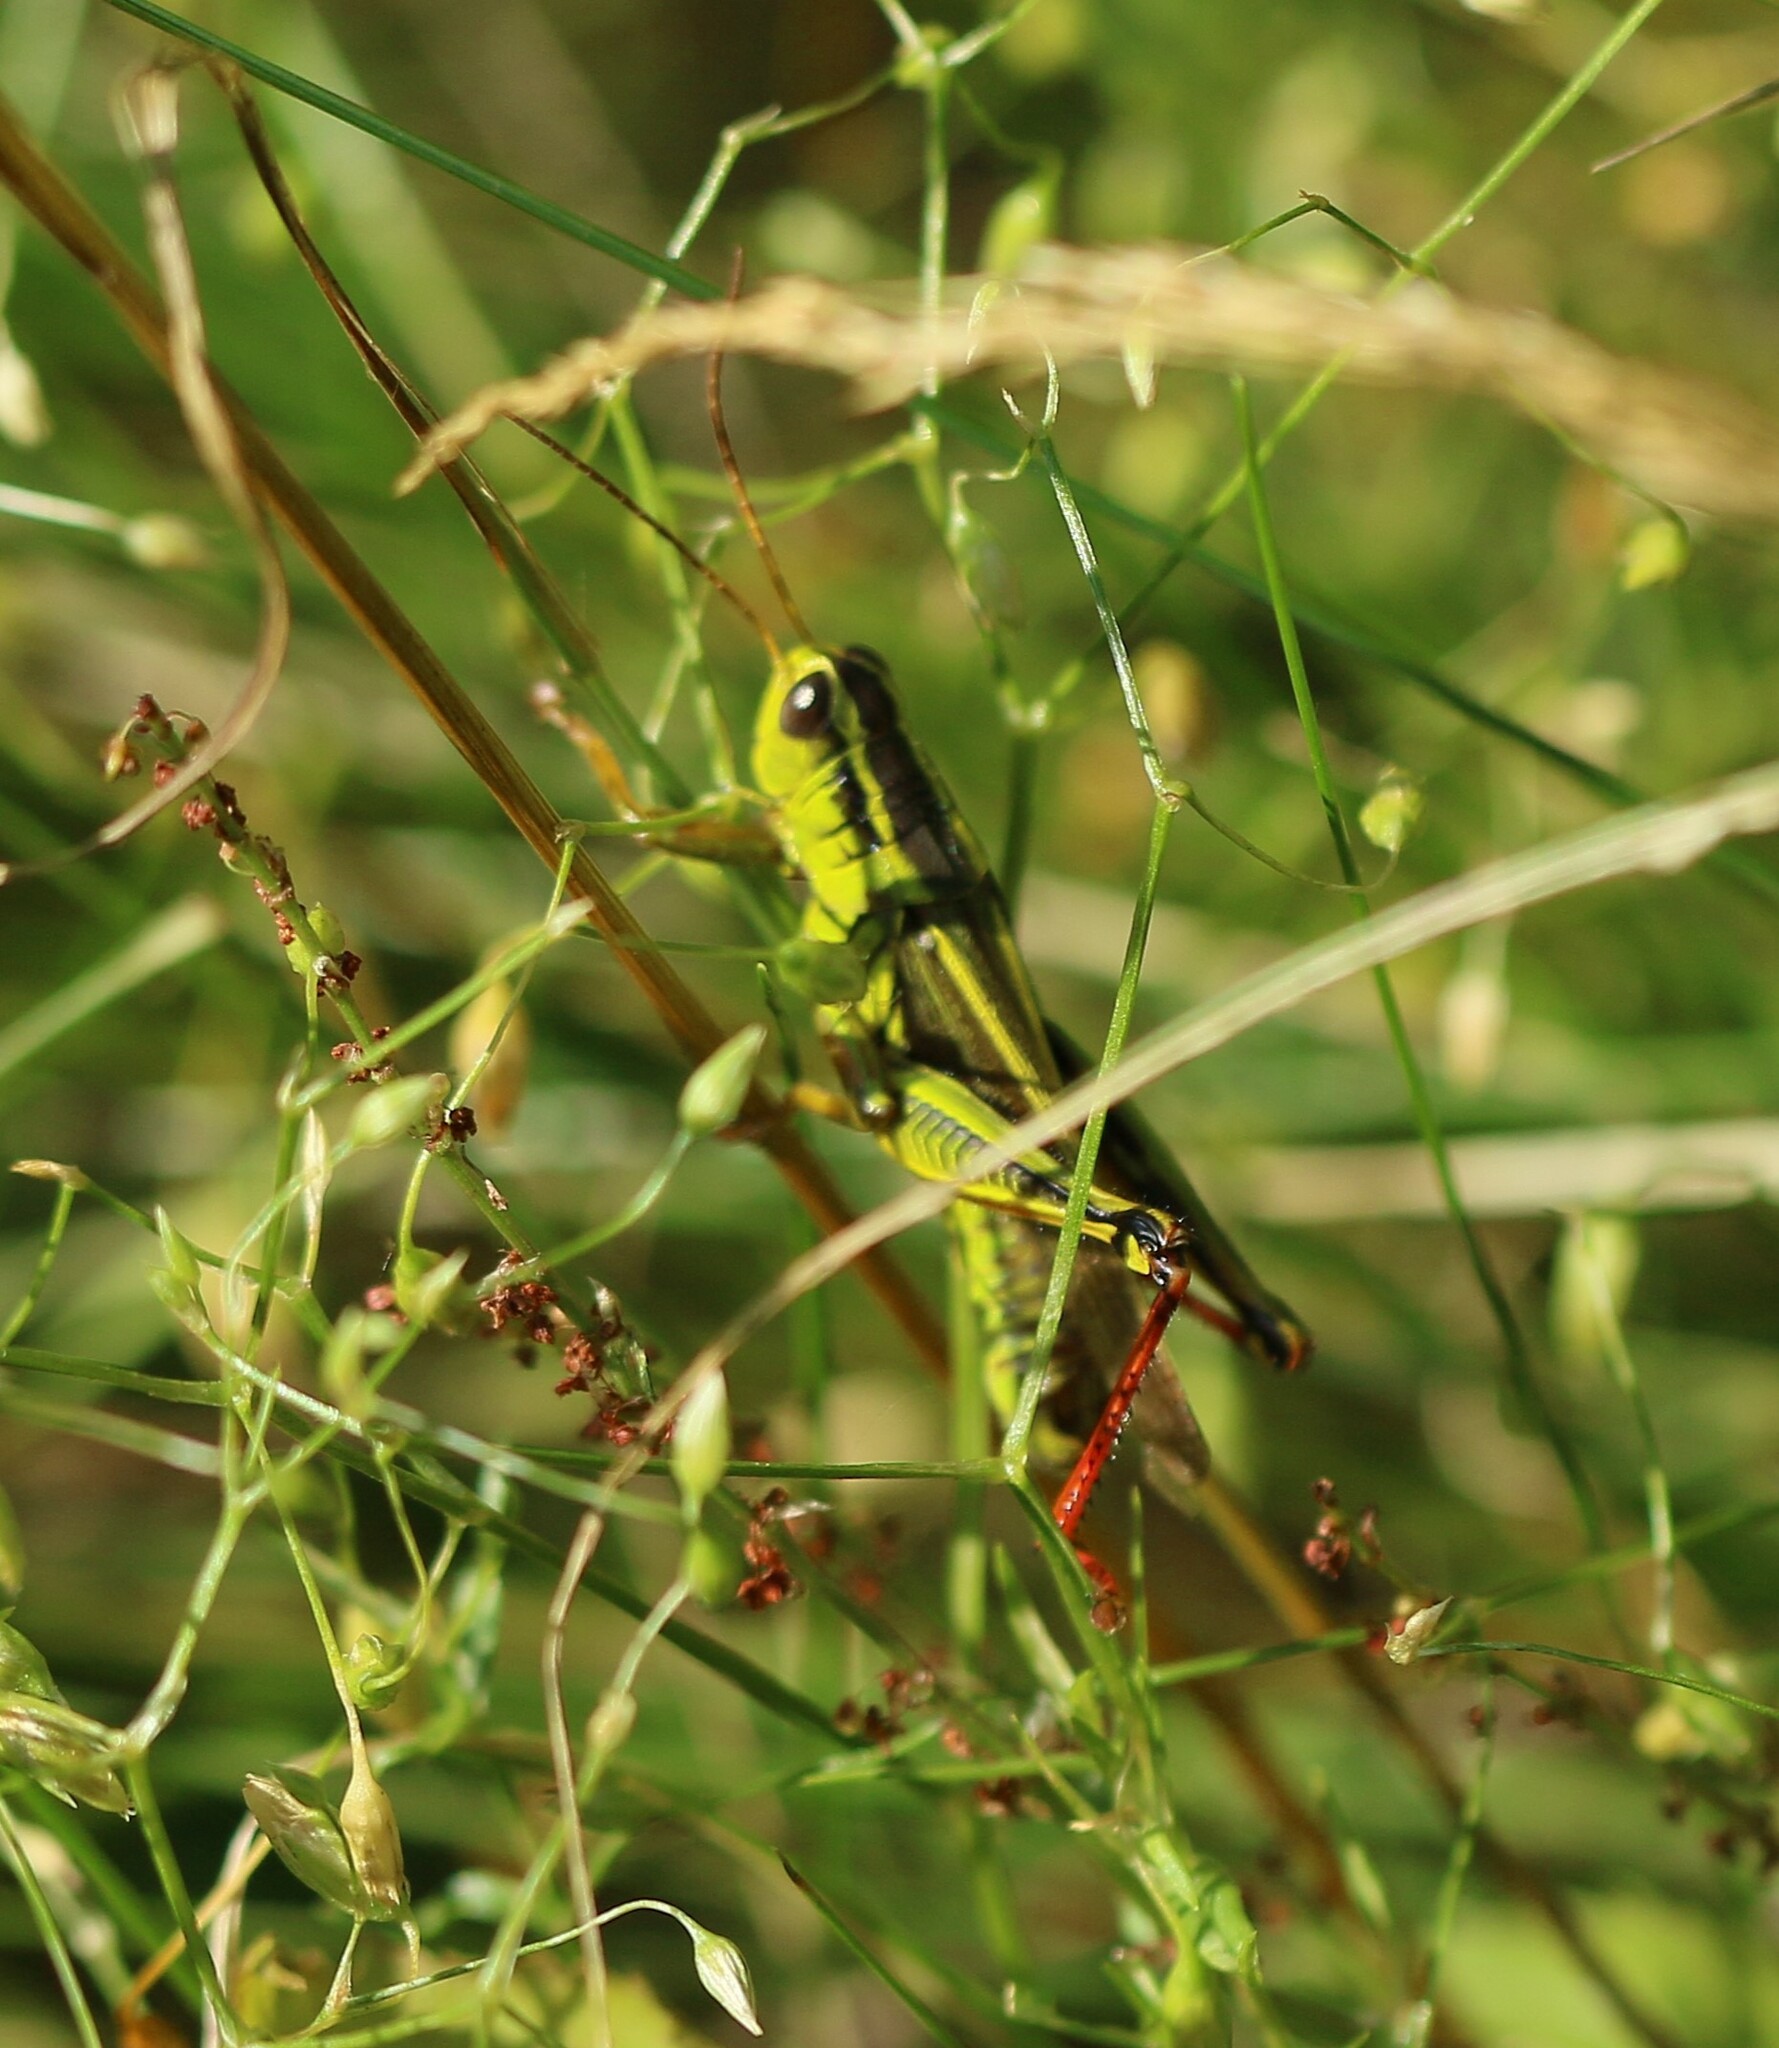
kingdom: Animalia
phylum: Arthropoda
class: Insecta
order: Orthoptera
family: Acrididae
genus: Melanoplus
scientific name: Melanoplus bivittatus
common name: Two-striped grasshopper
